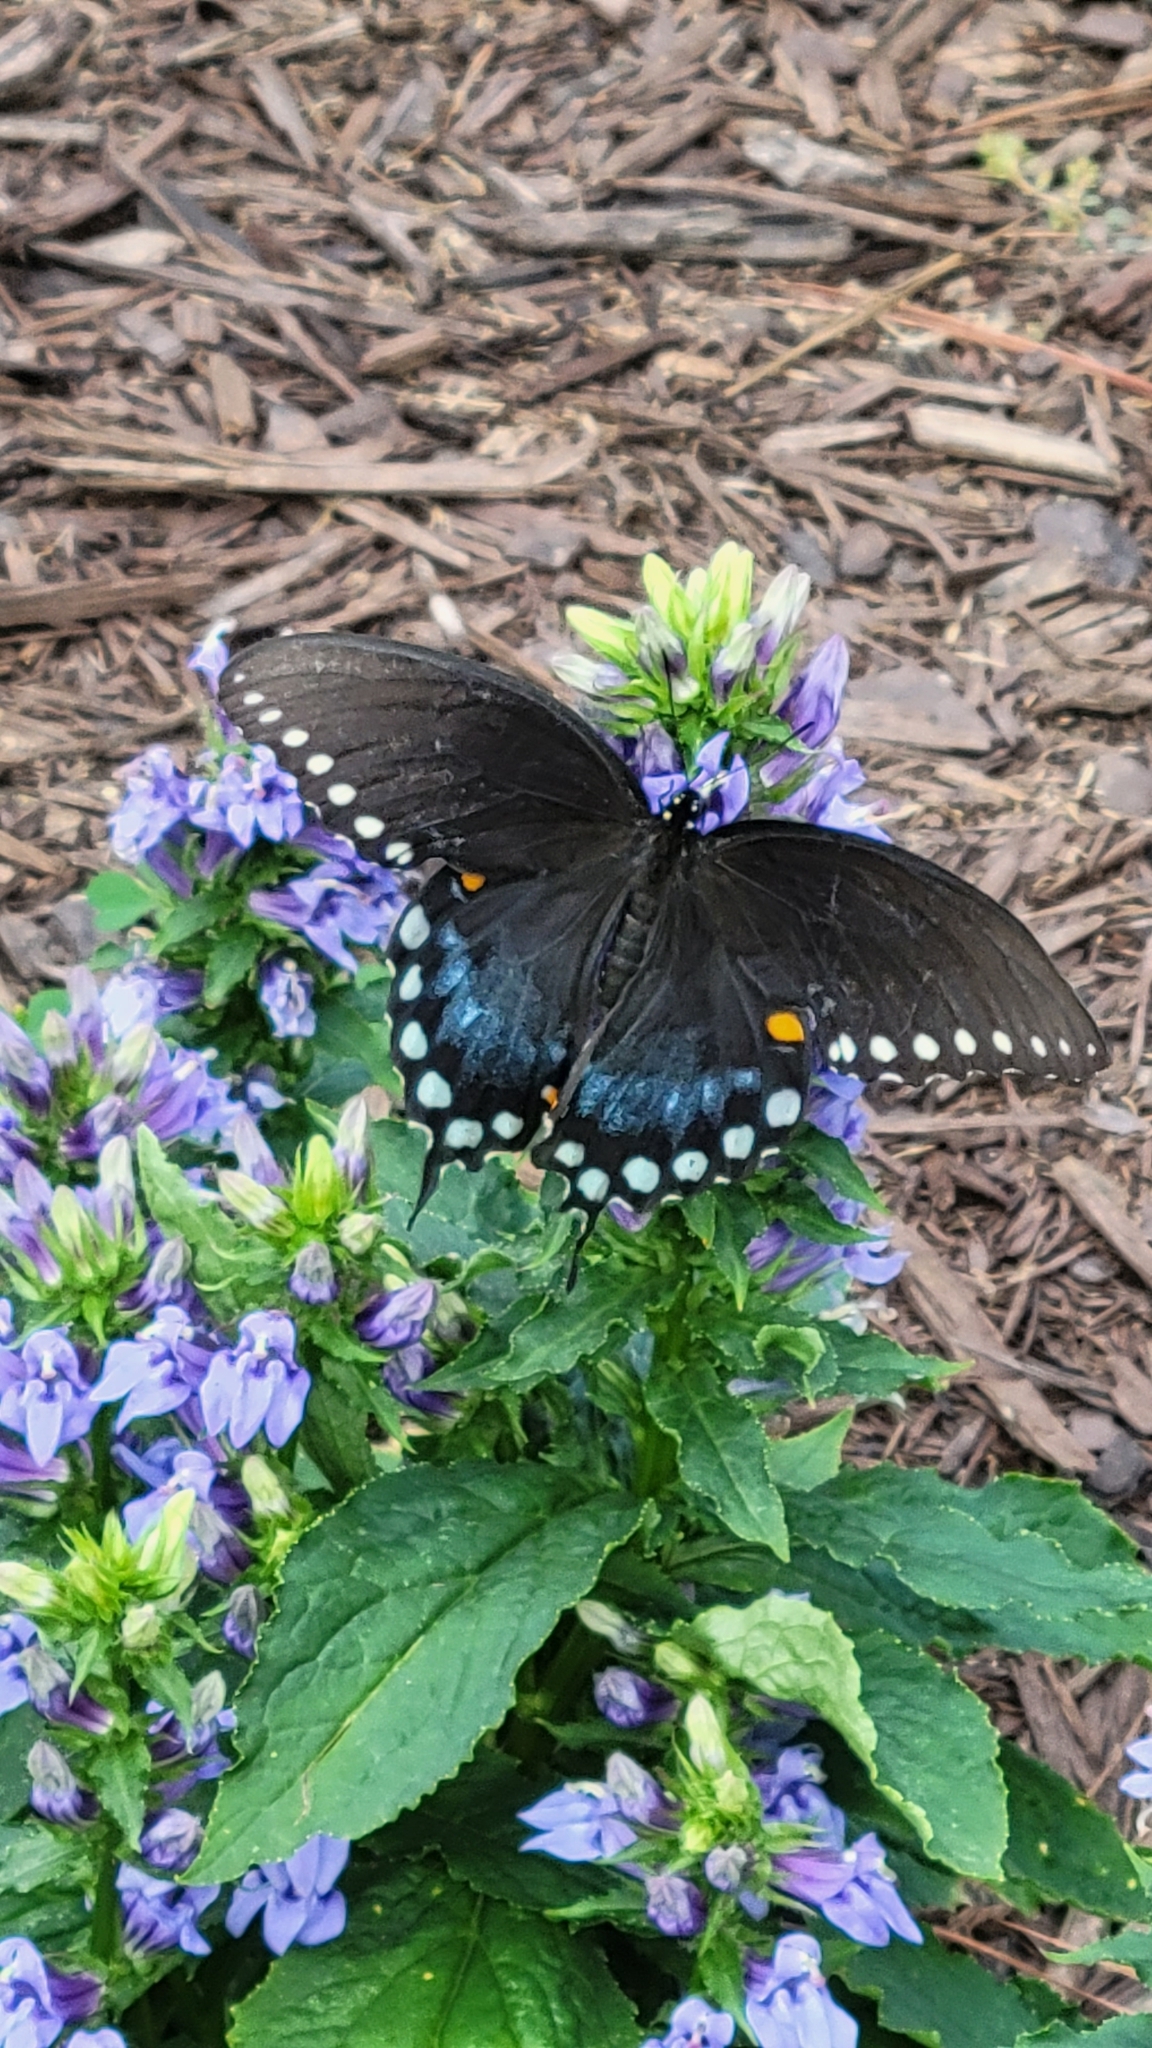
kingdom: Animalia
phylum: Arthropoda
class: Insecta
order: Lepidoptera
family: Papilionidae
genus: Papilio
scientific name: Papilio troilus
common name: Spicebush swallowtail
